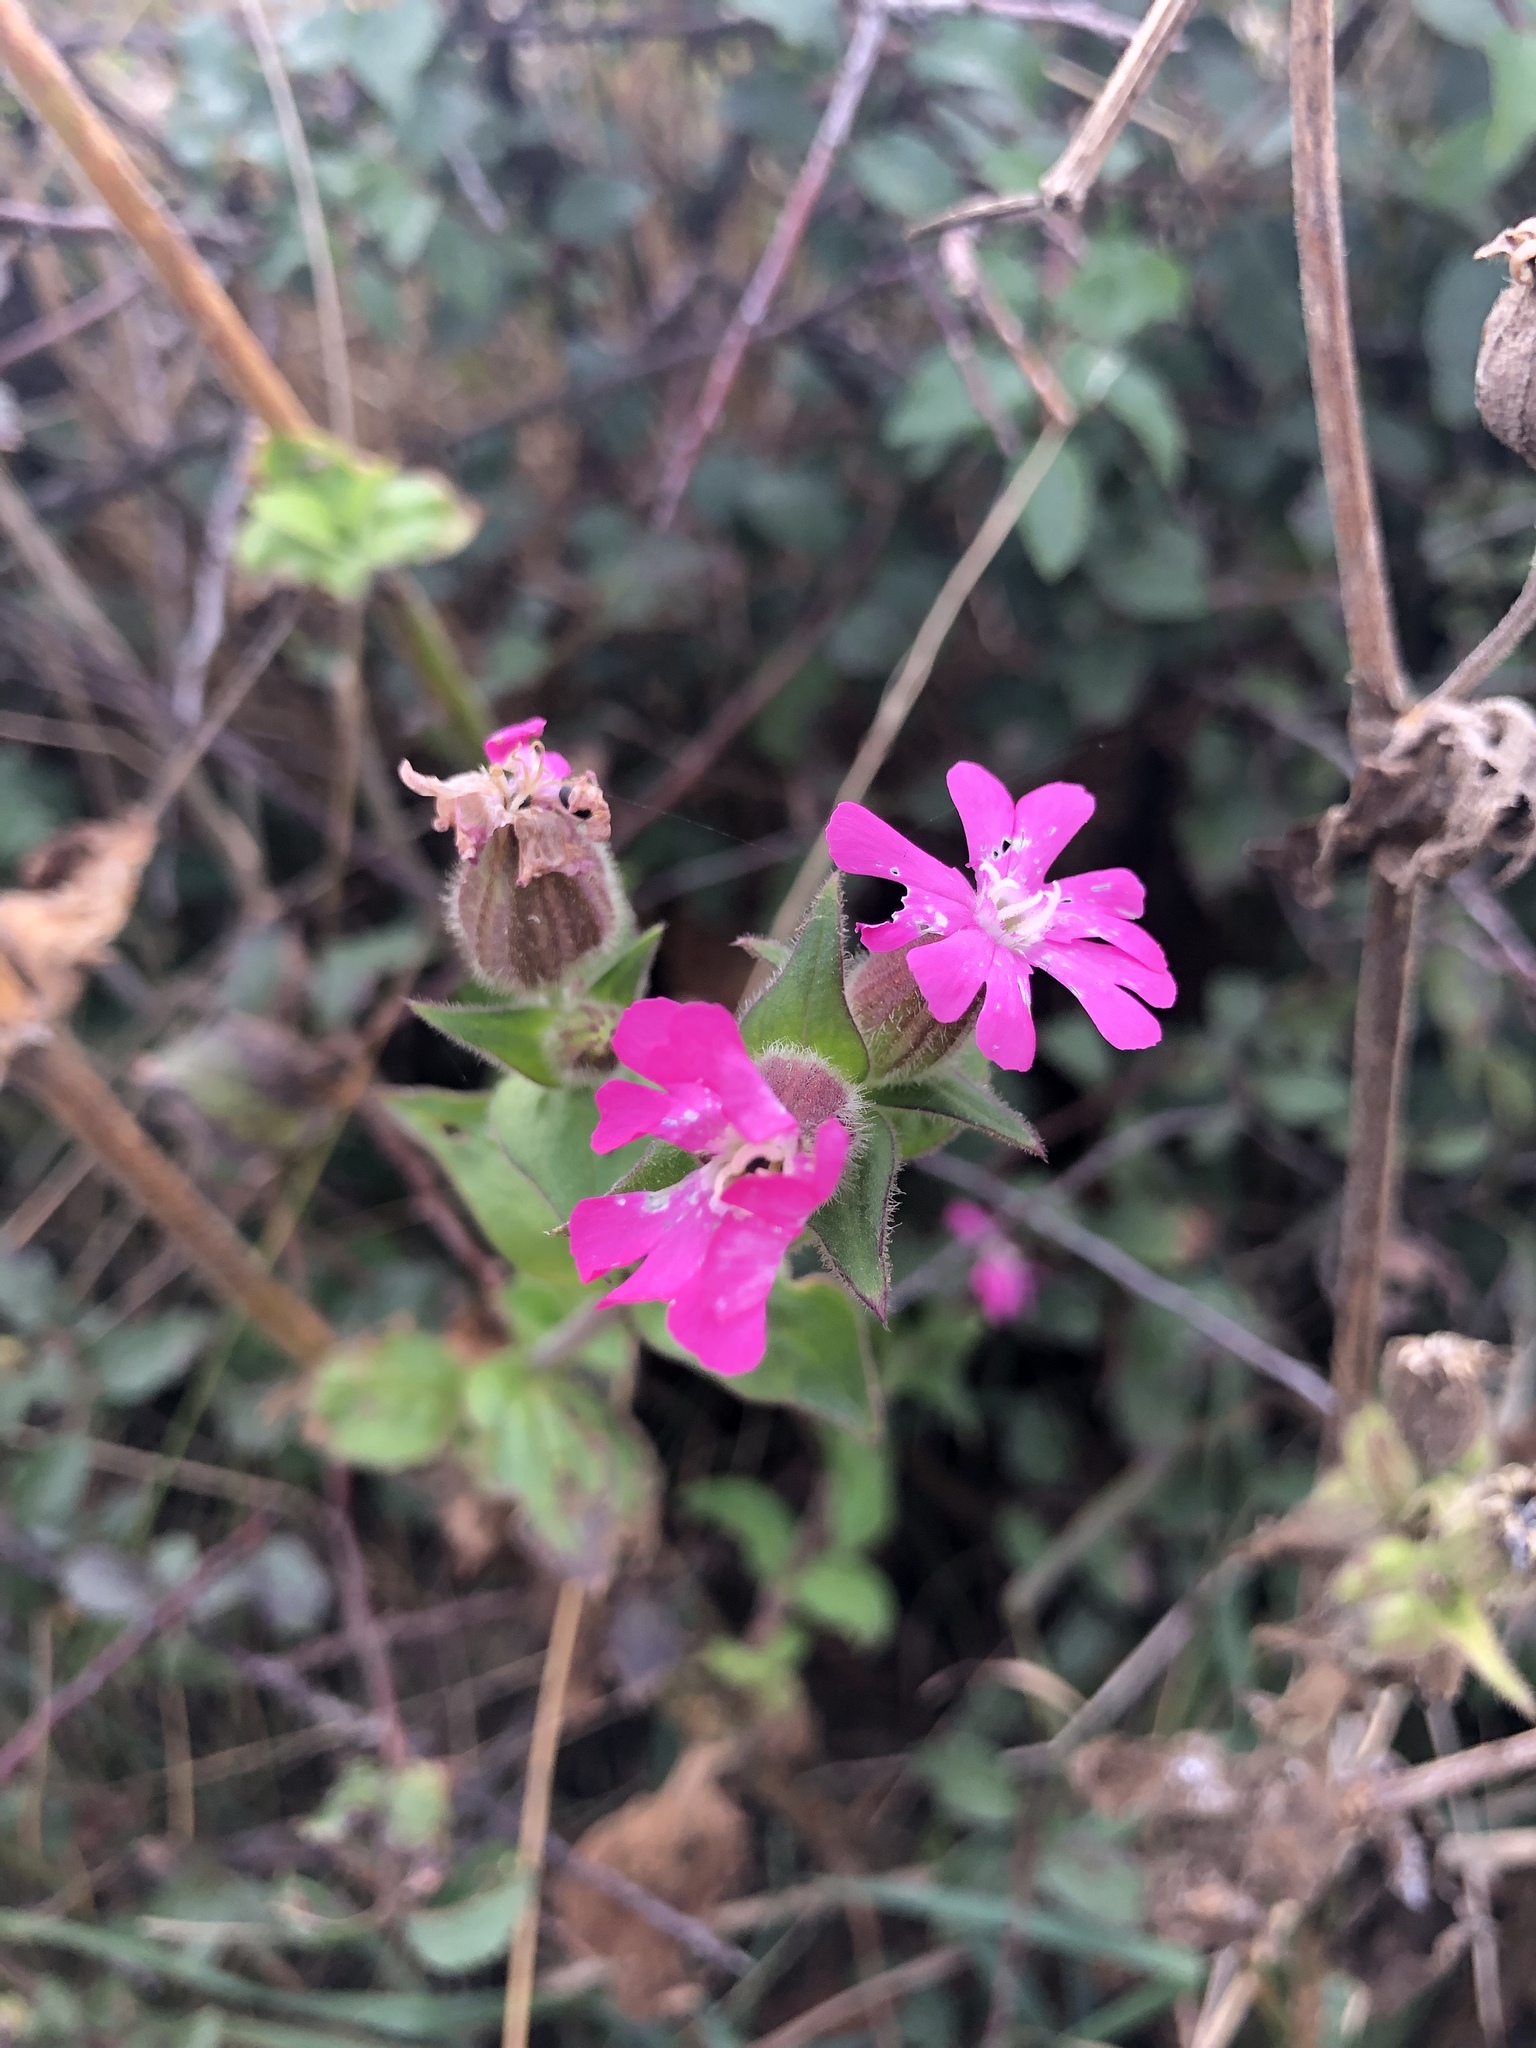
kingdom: Plantae
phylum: Tracheophyta
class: Magnoliopsida
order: Caryophyllales
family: Caryophyllaceae
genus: Silene
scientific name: Silene dioica
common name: Red campion
